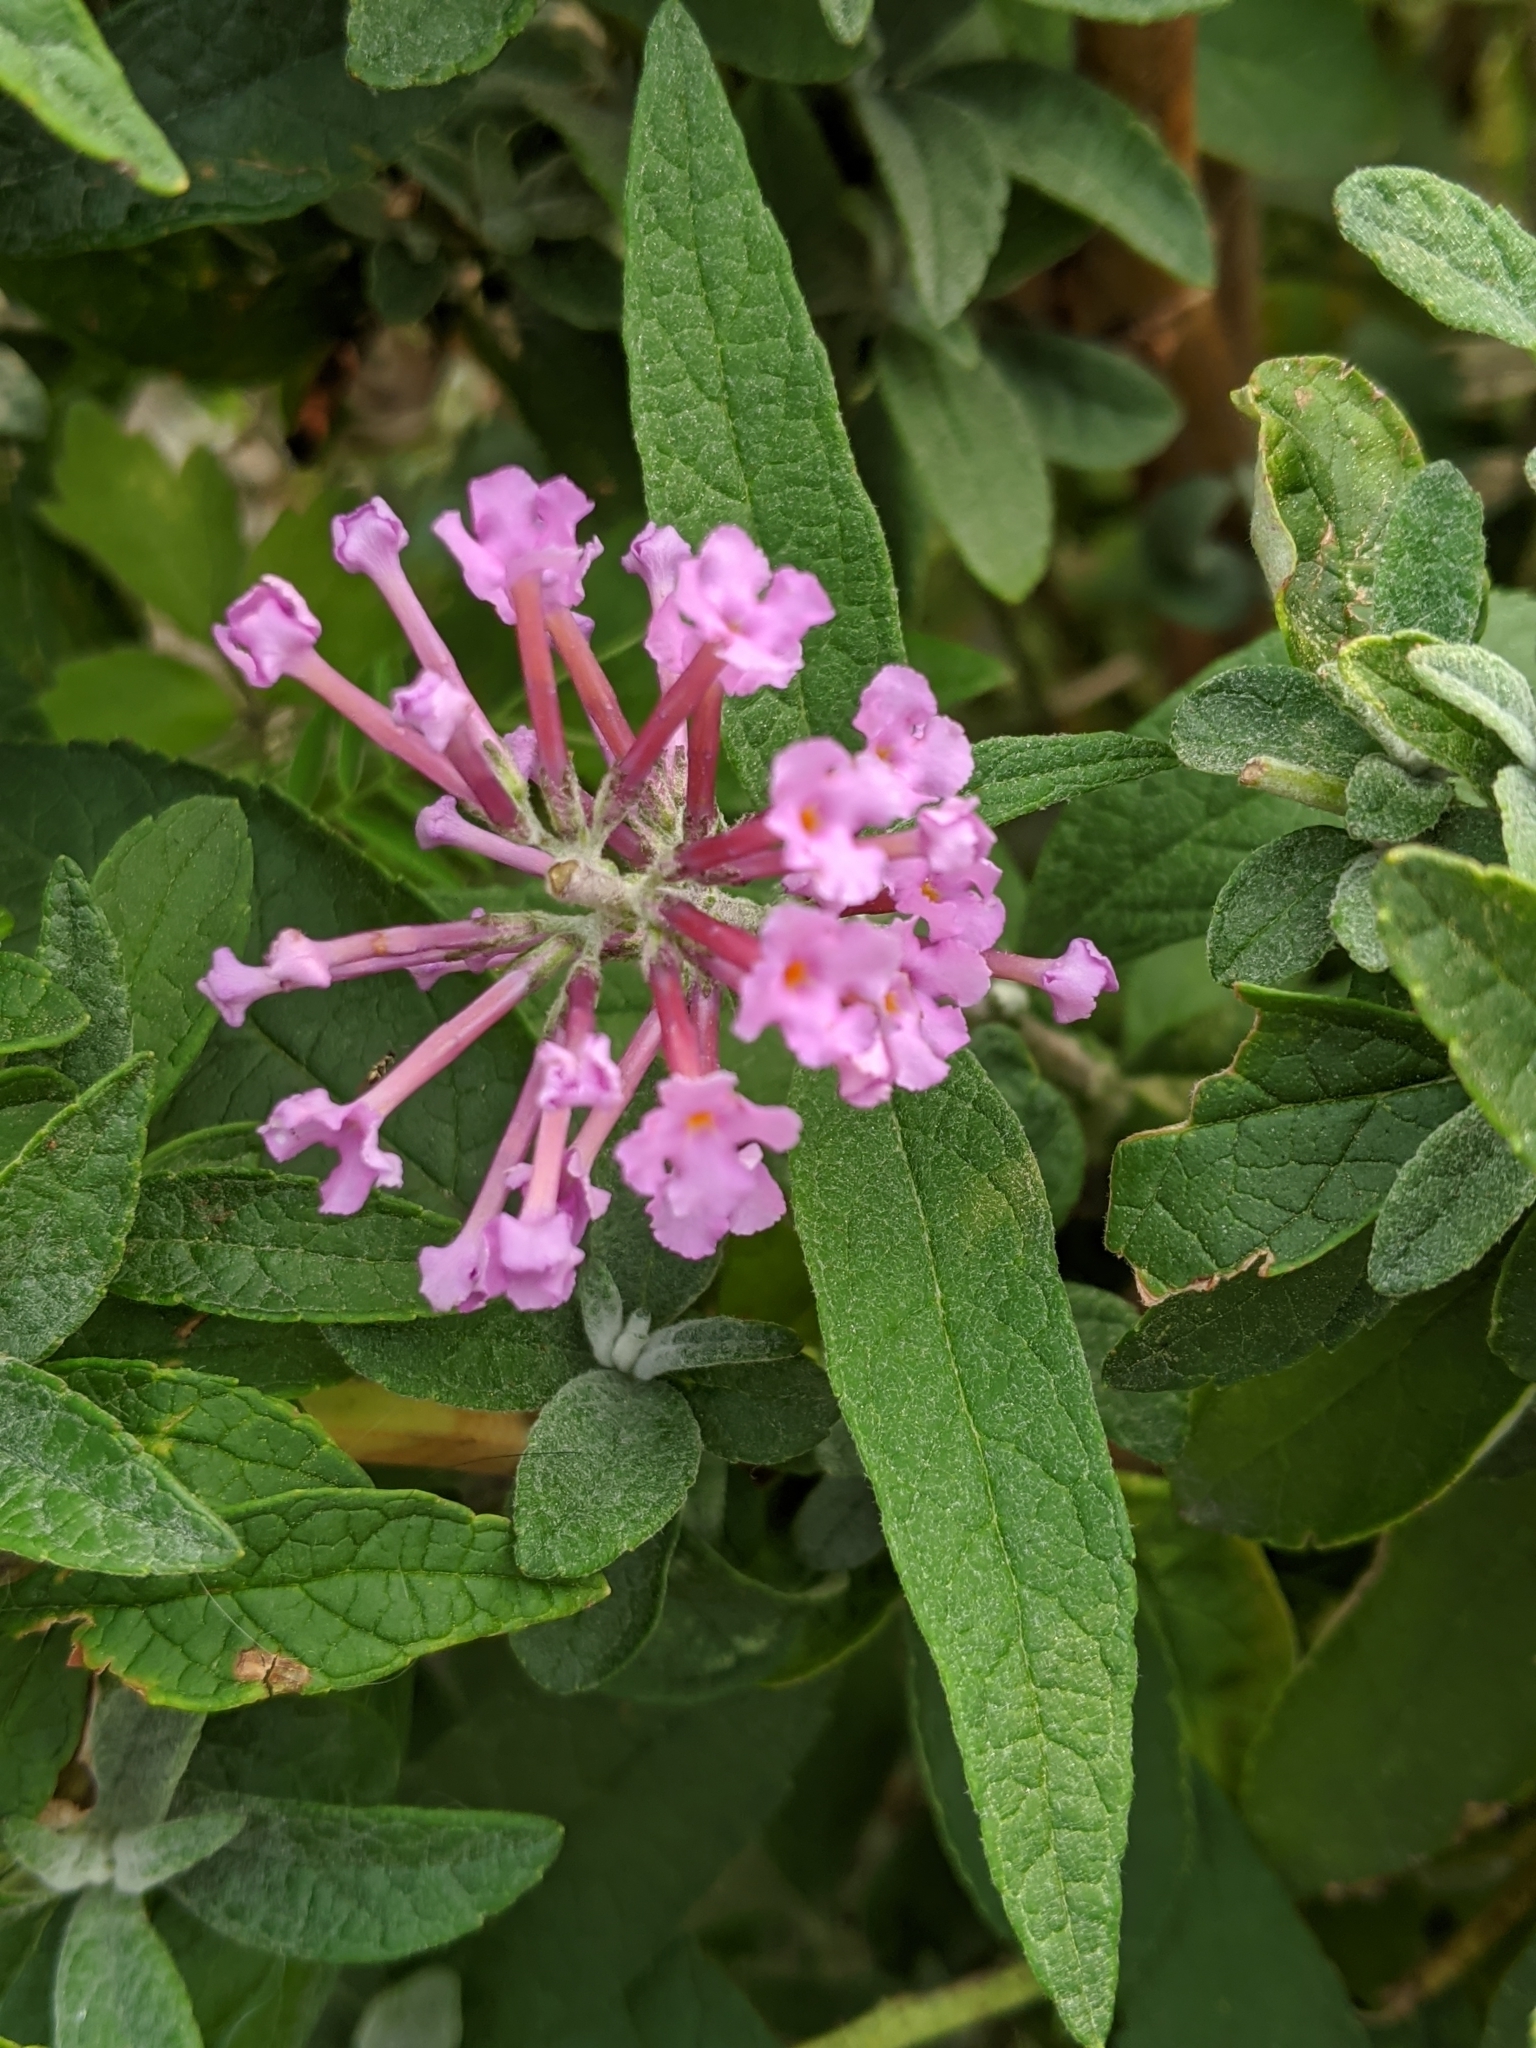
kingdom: Plantae
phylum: Tracheophyta
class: Magnoliopsida
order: Lamiales
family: Scrophulariaceae
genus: Buddleja
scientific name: Buddleja davidii
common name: Butterfly-bush
